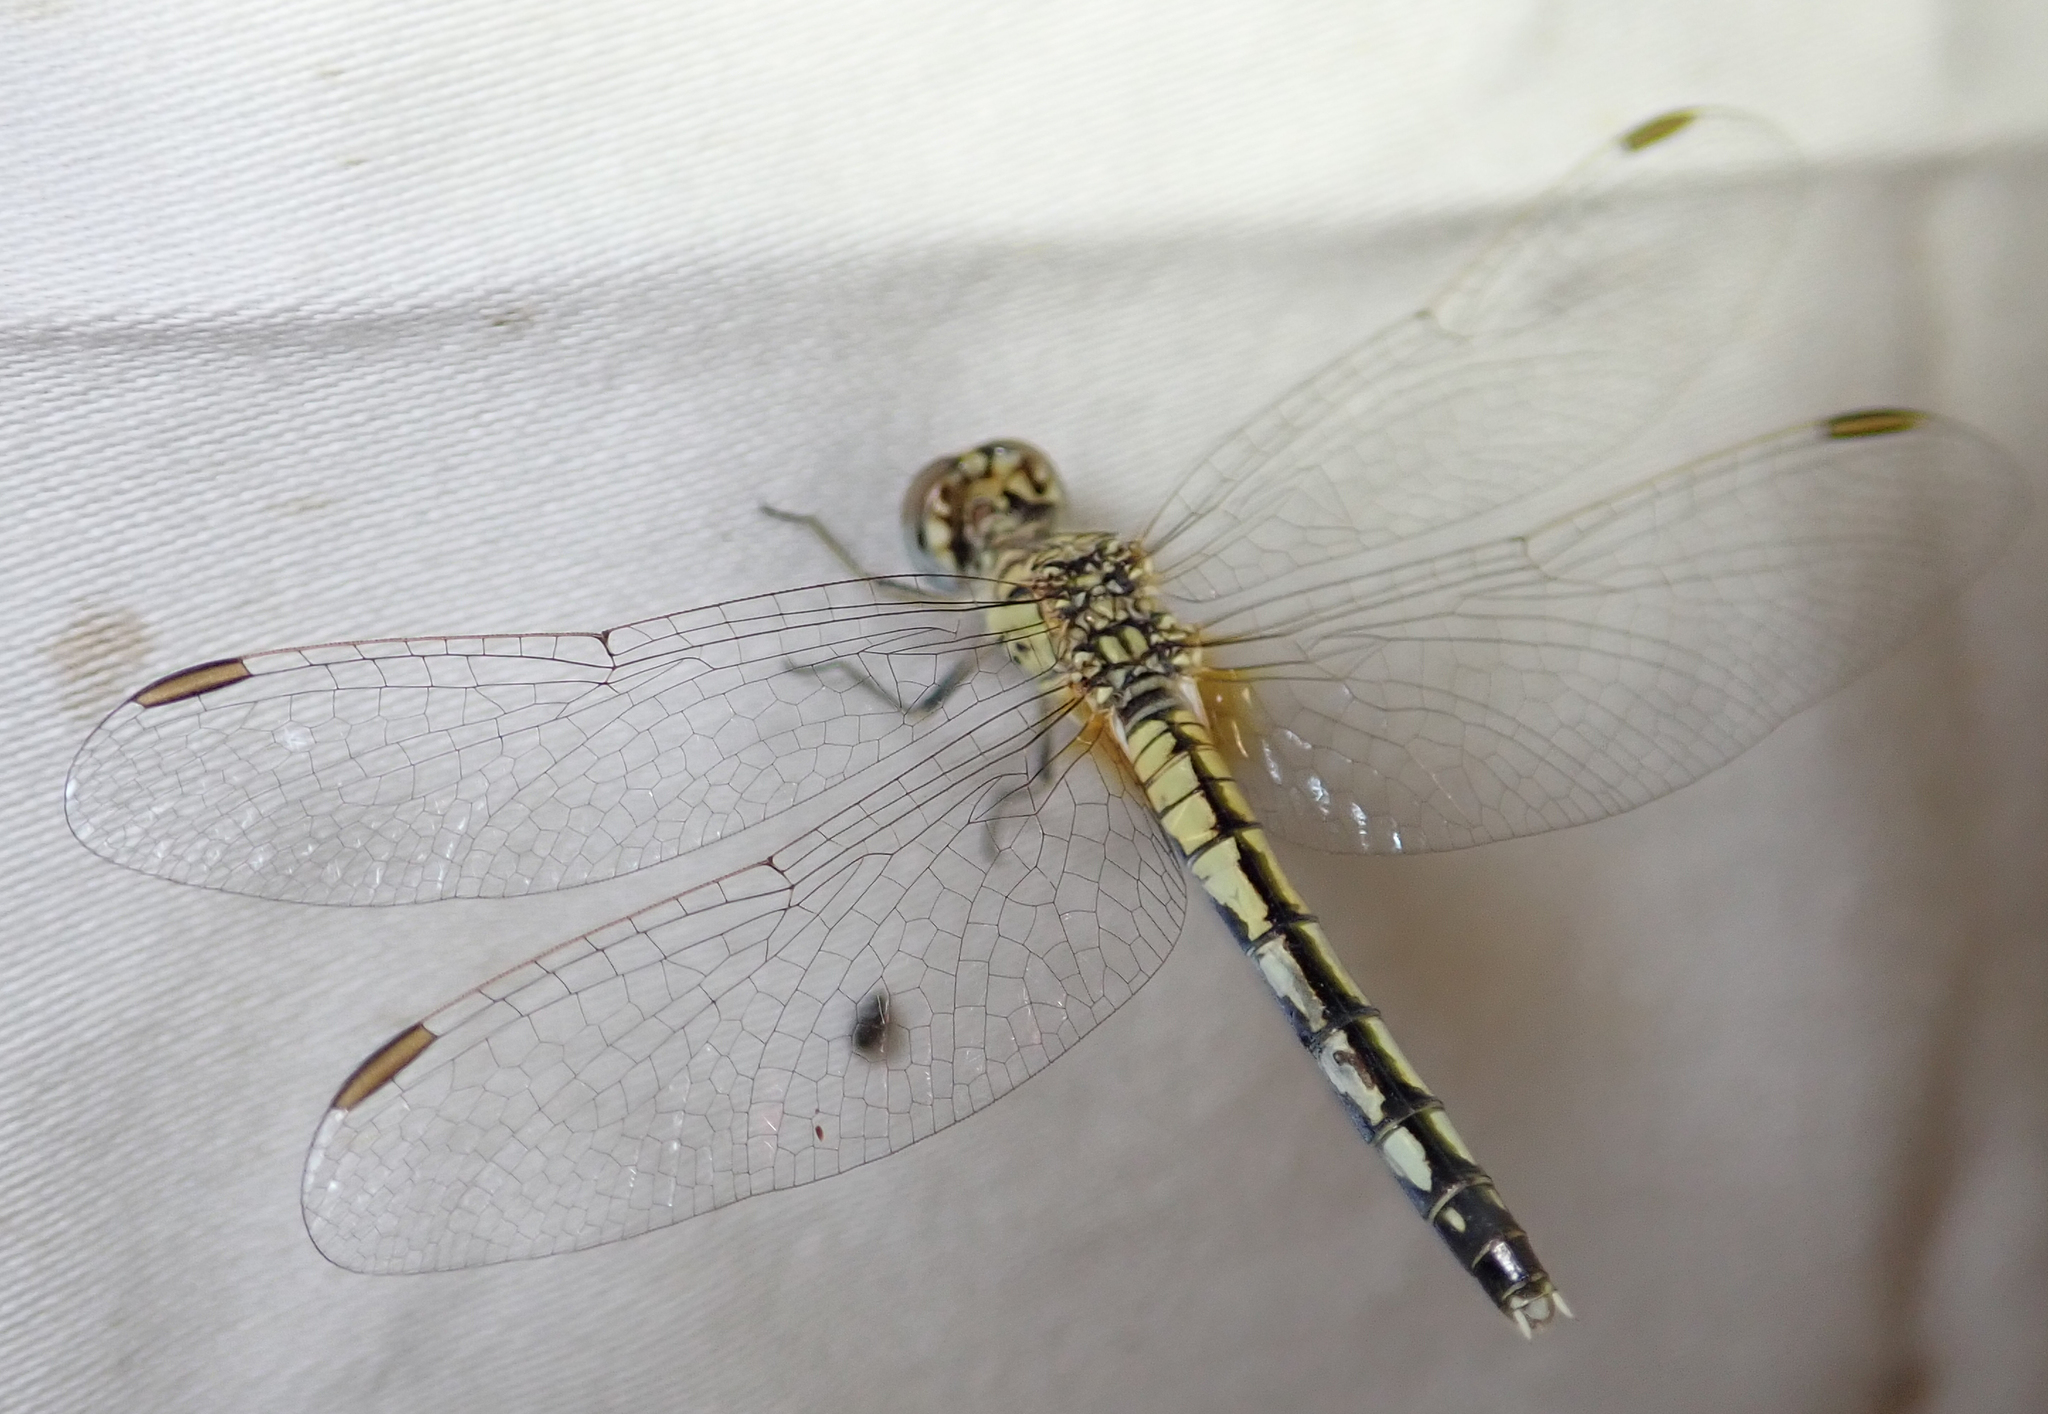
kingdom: Animalia
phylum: Arthropoda
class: Insecta
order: Odonata
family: Libellulidae
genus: Diplacodes
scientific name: Diplacodes lefebvrii
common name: Black percher
